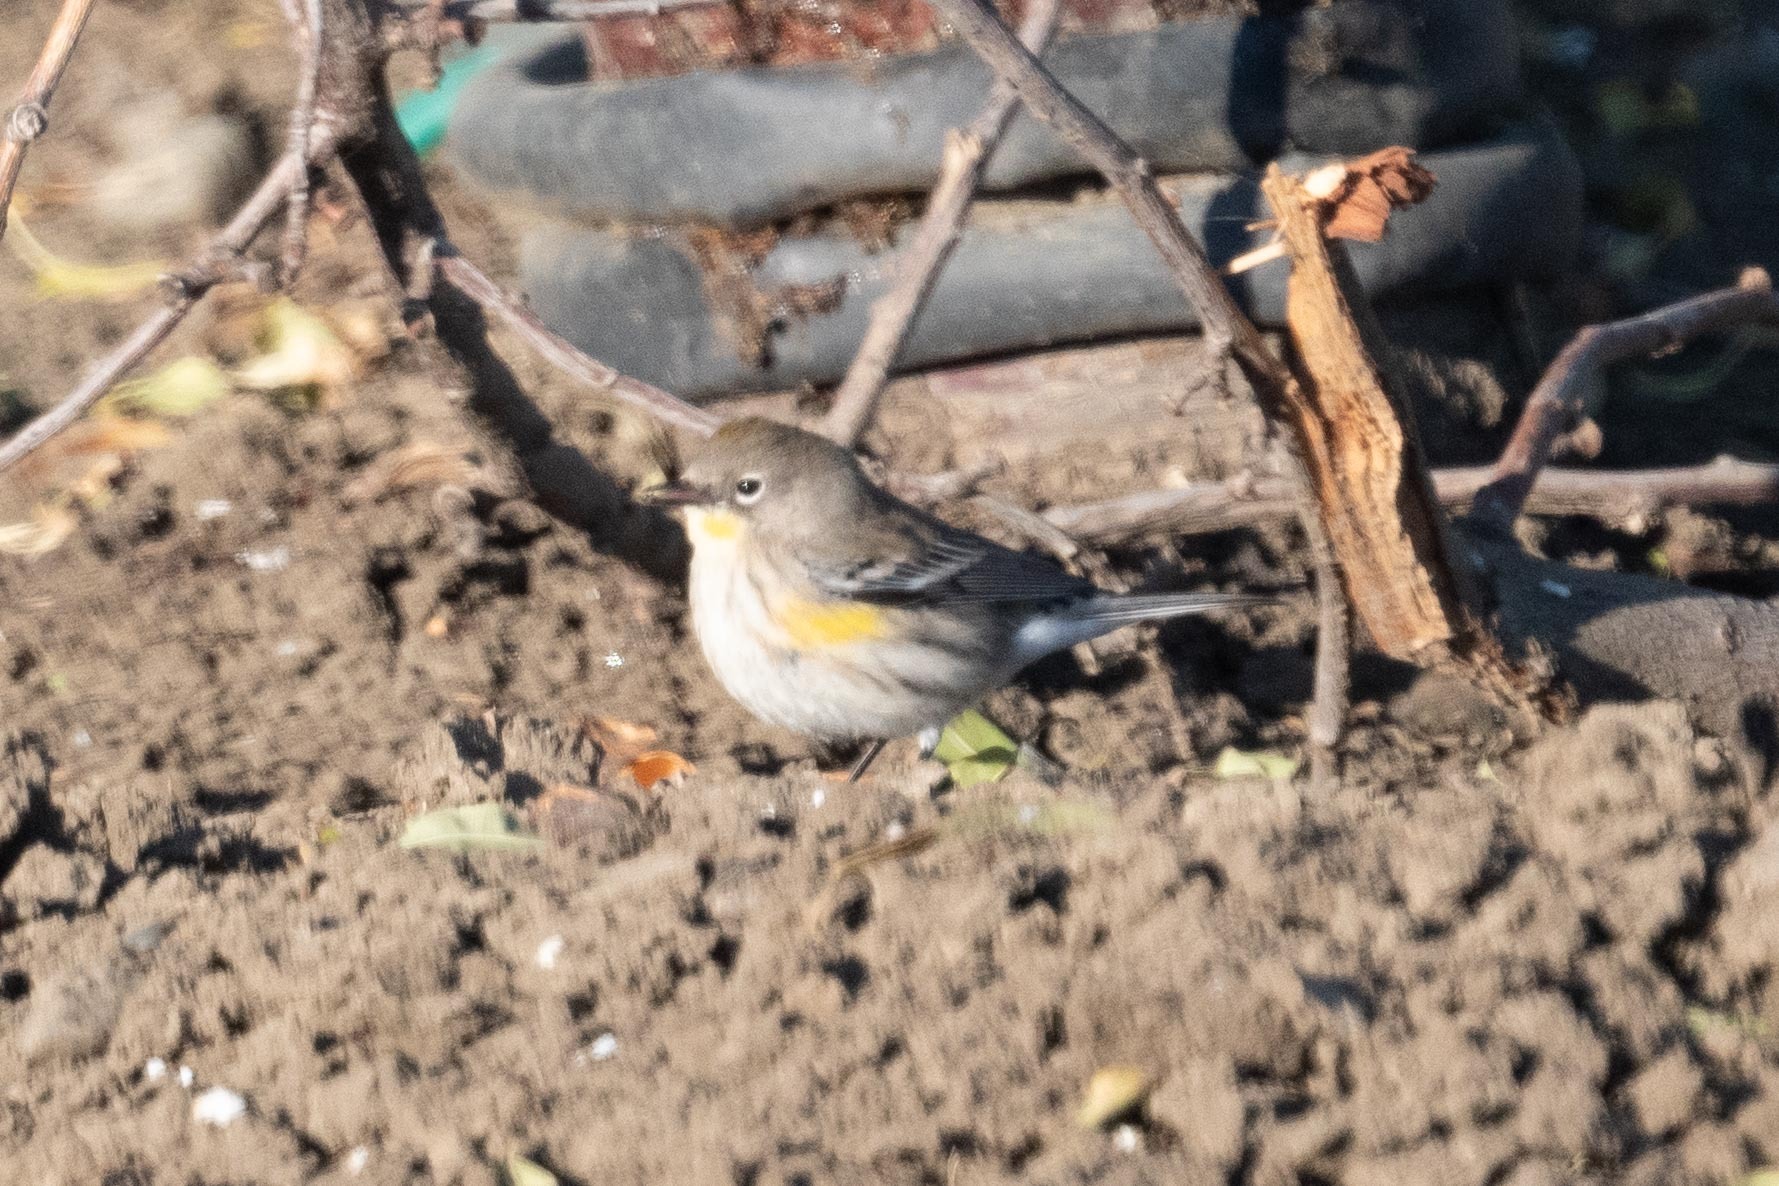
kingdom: Animalia
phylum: Chordata
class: Aves
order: Passeriformes
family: Parulidae
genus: Setophaga
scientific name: Setophaga coronata
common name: Myrtle warbler
